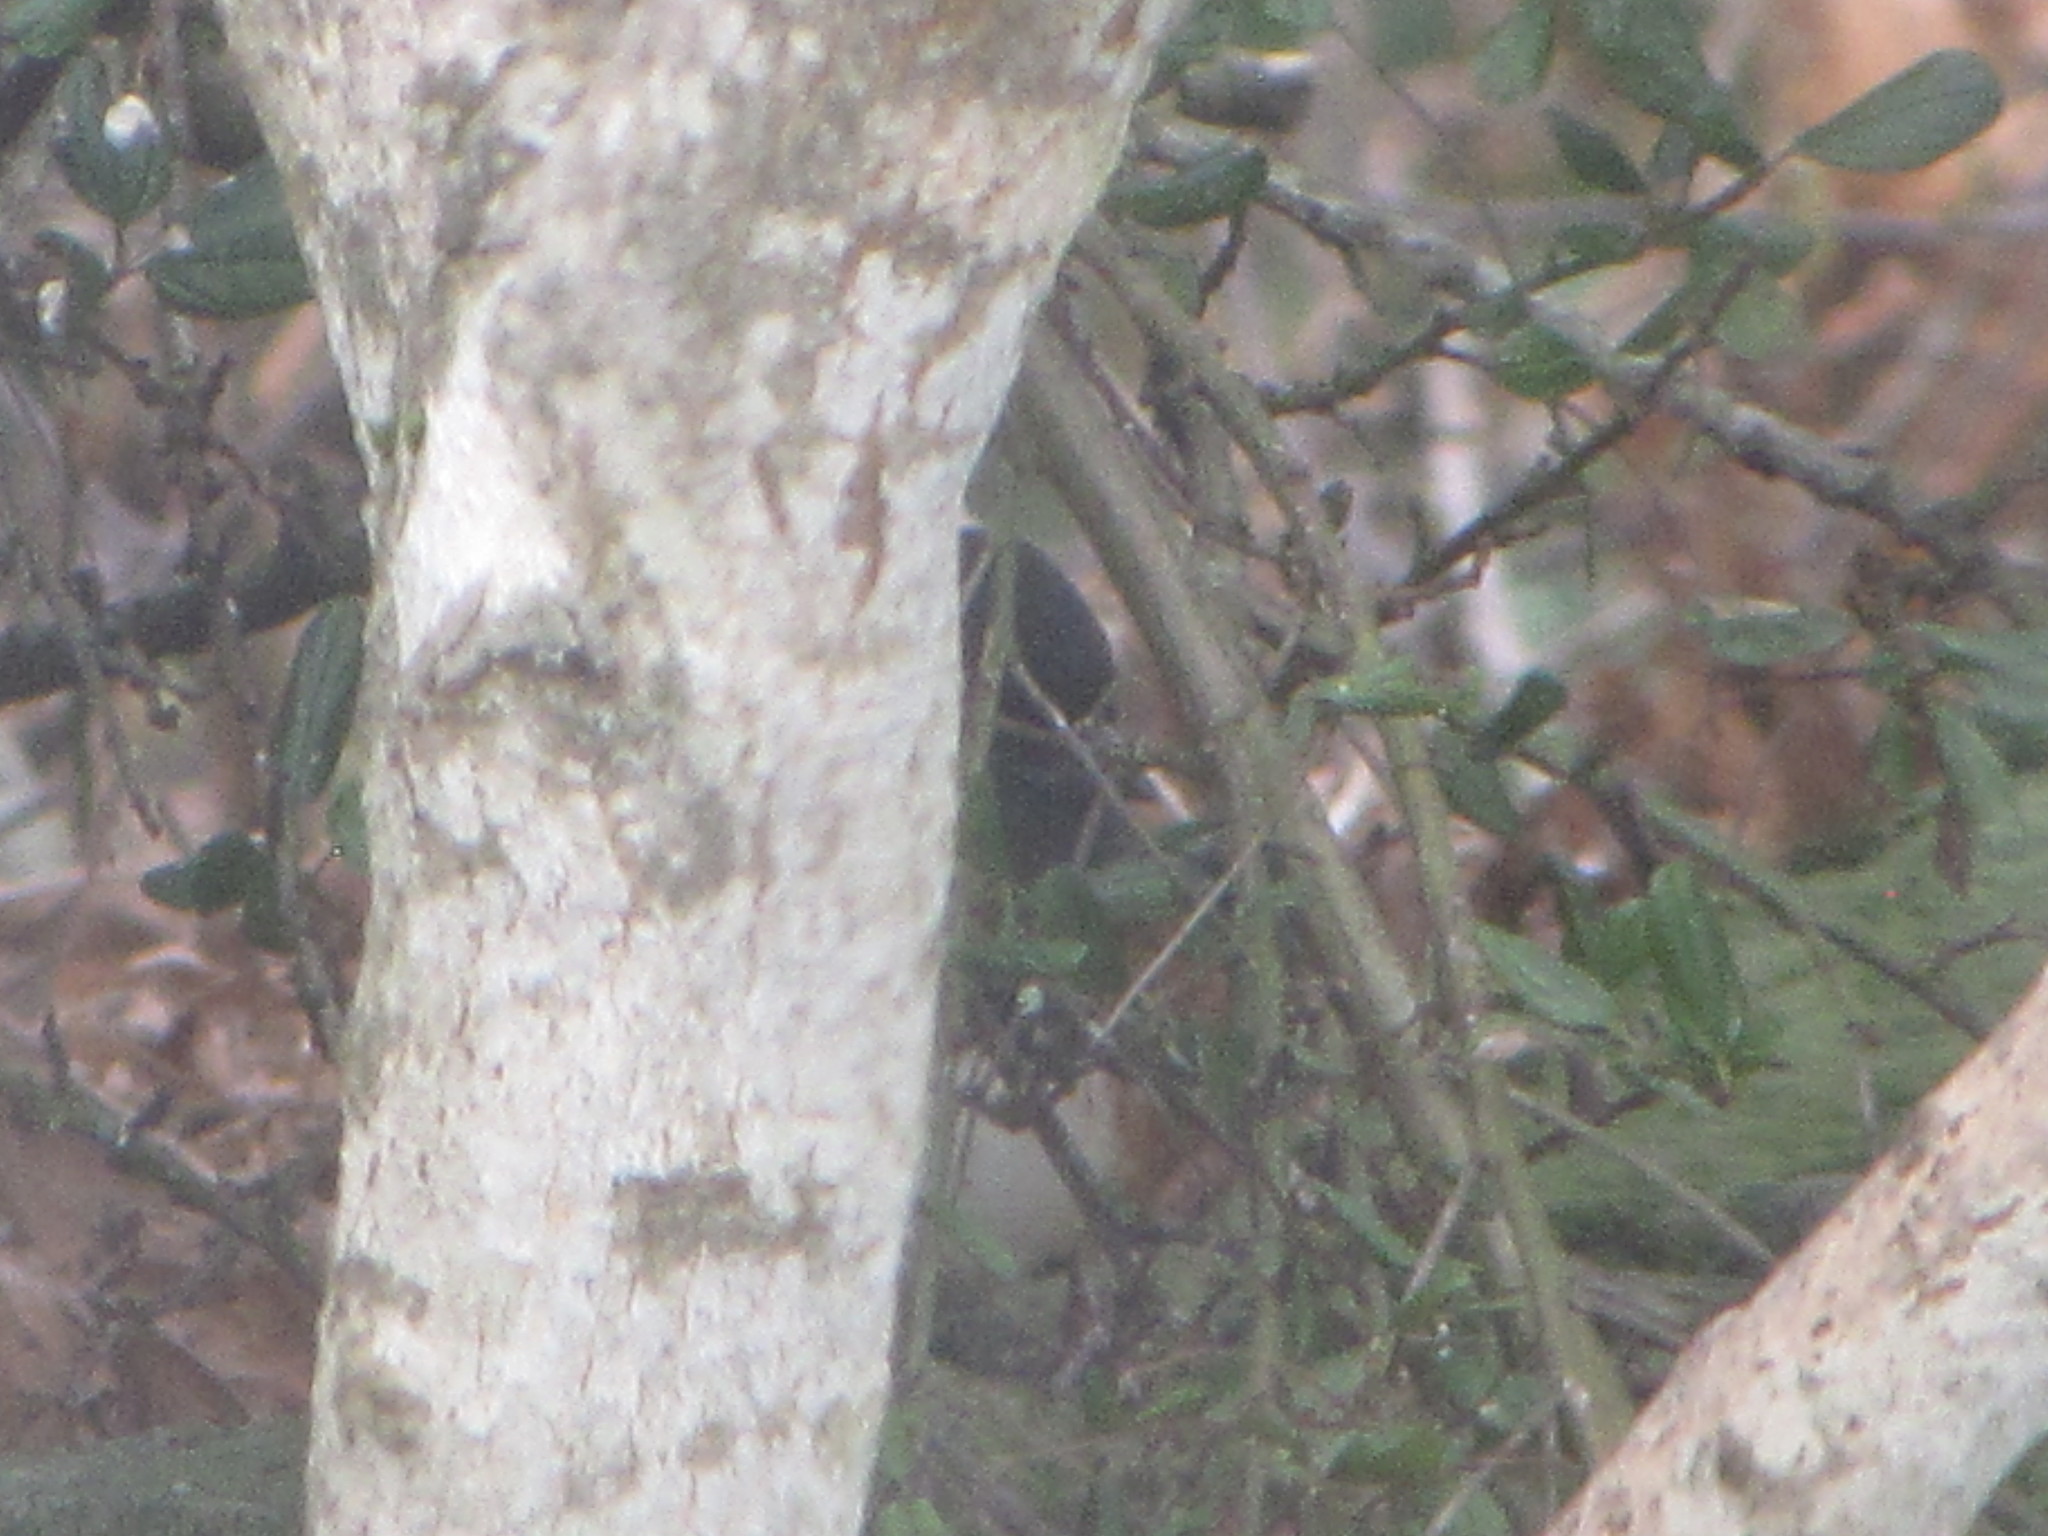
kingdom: Animalia
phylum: Chordata
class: Aves
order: Passeriformes
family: Passerellidae
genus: Pipilo
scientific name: Pipilo maculatus
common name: Spotted towhee
